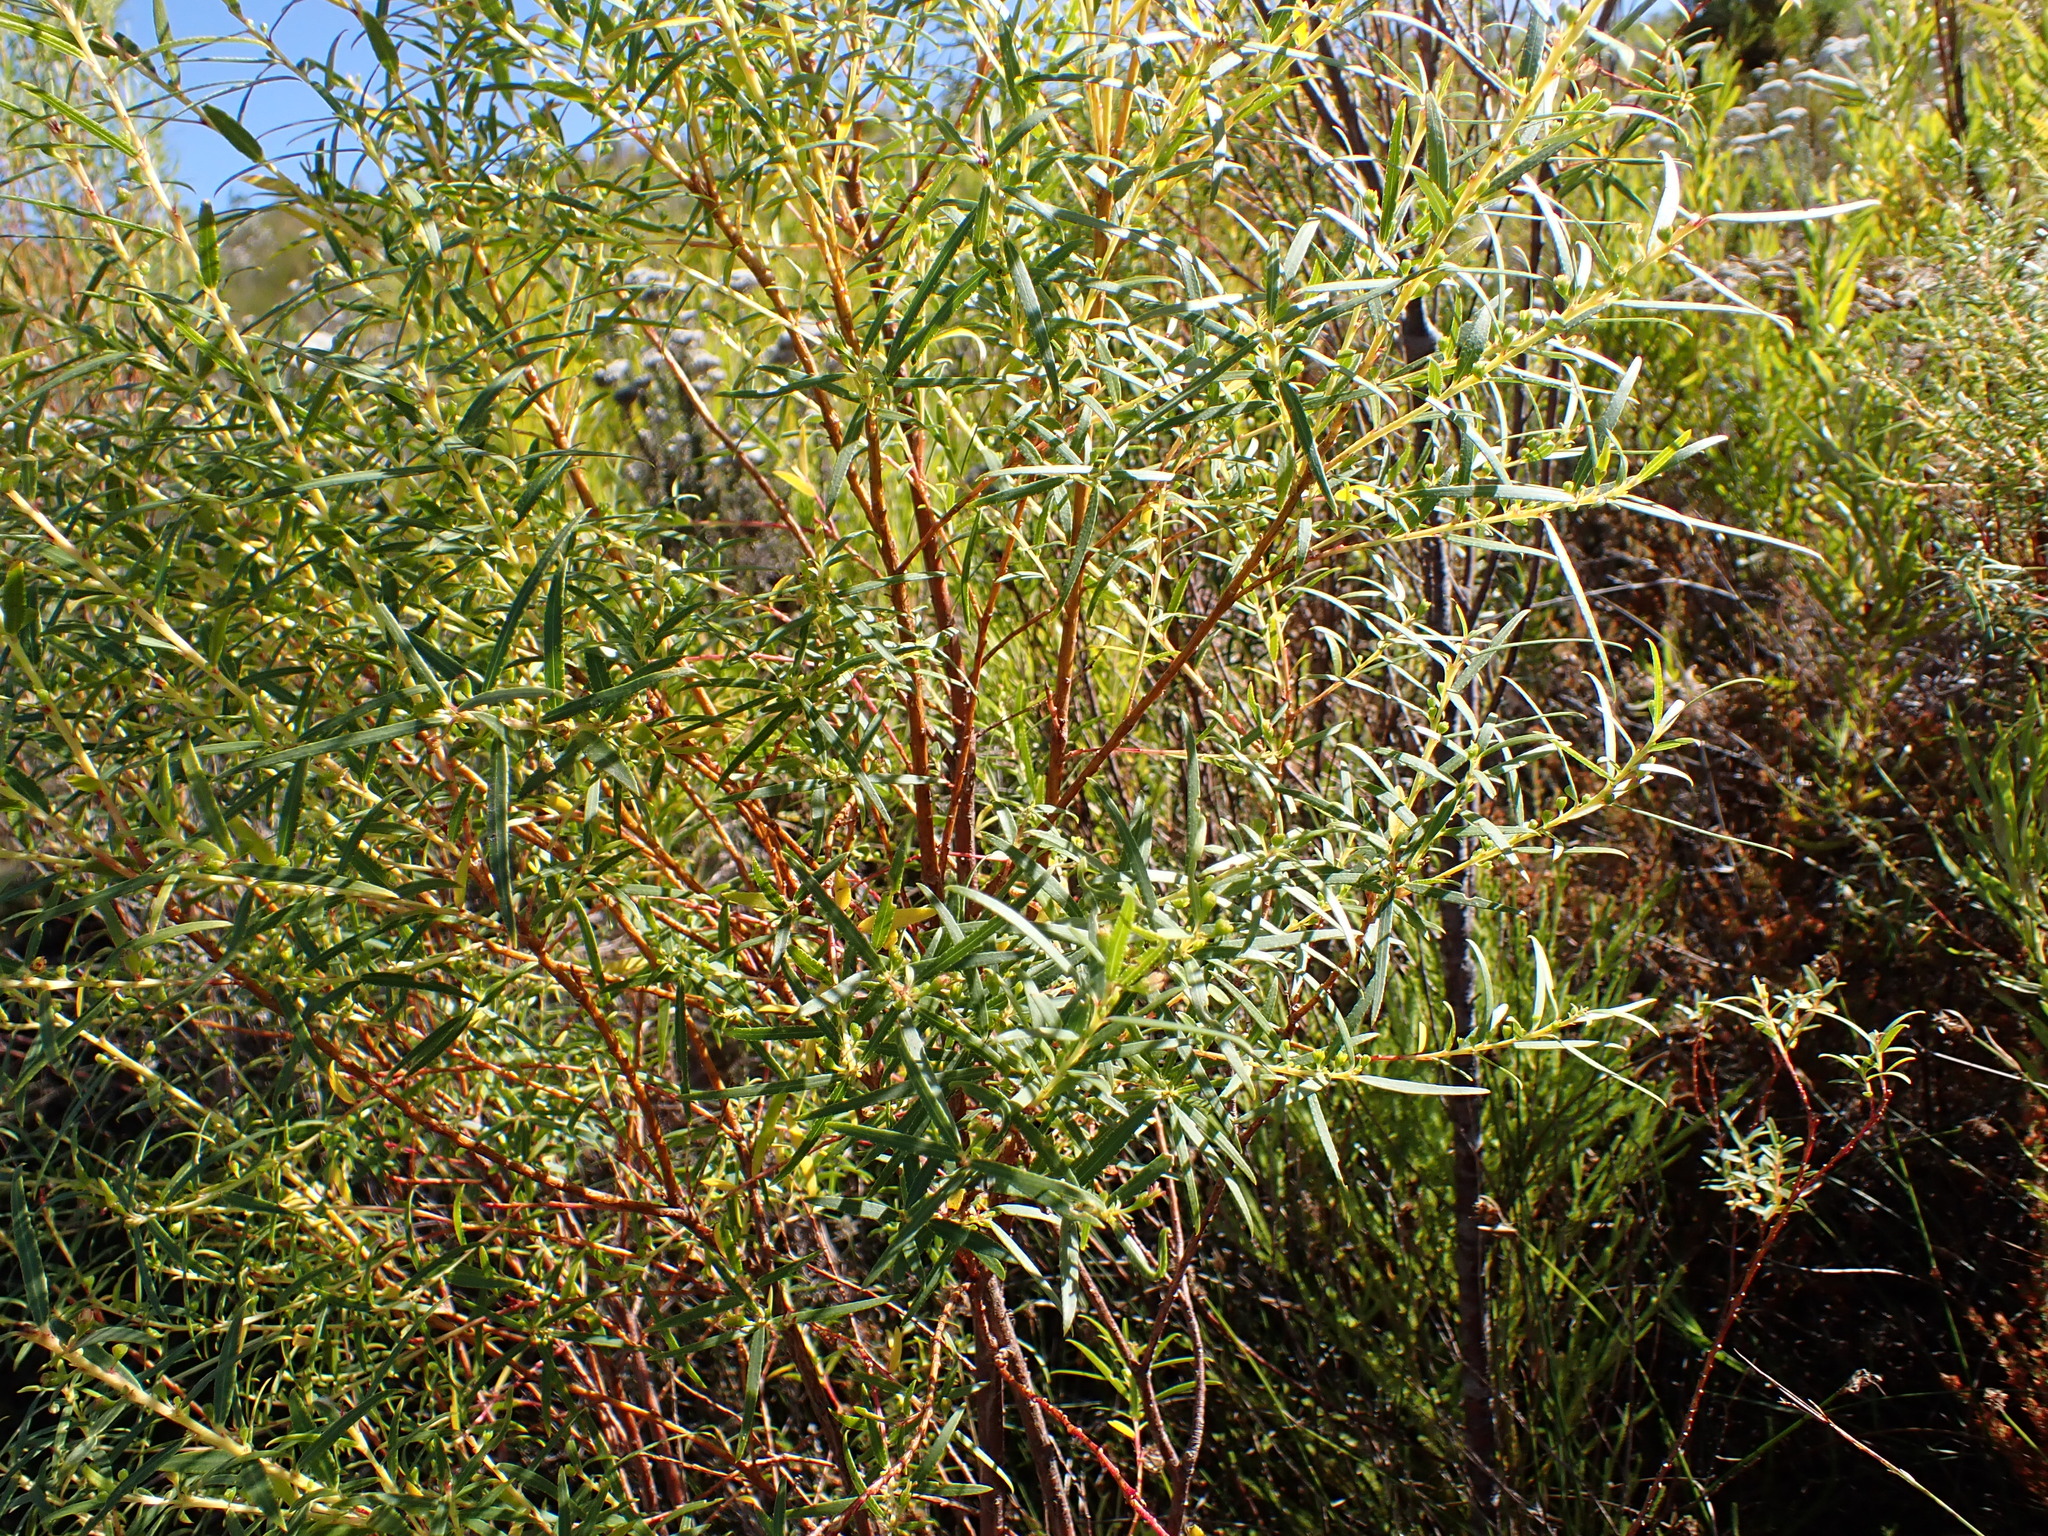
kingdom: Plantae
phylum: Tracheophyta
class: Magnoliopsida
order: Sapindales
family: Rutaceae
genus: Empleurum
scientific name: Empleurum unicapsulare
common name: False buchu
